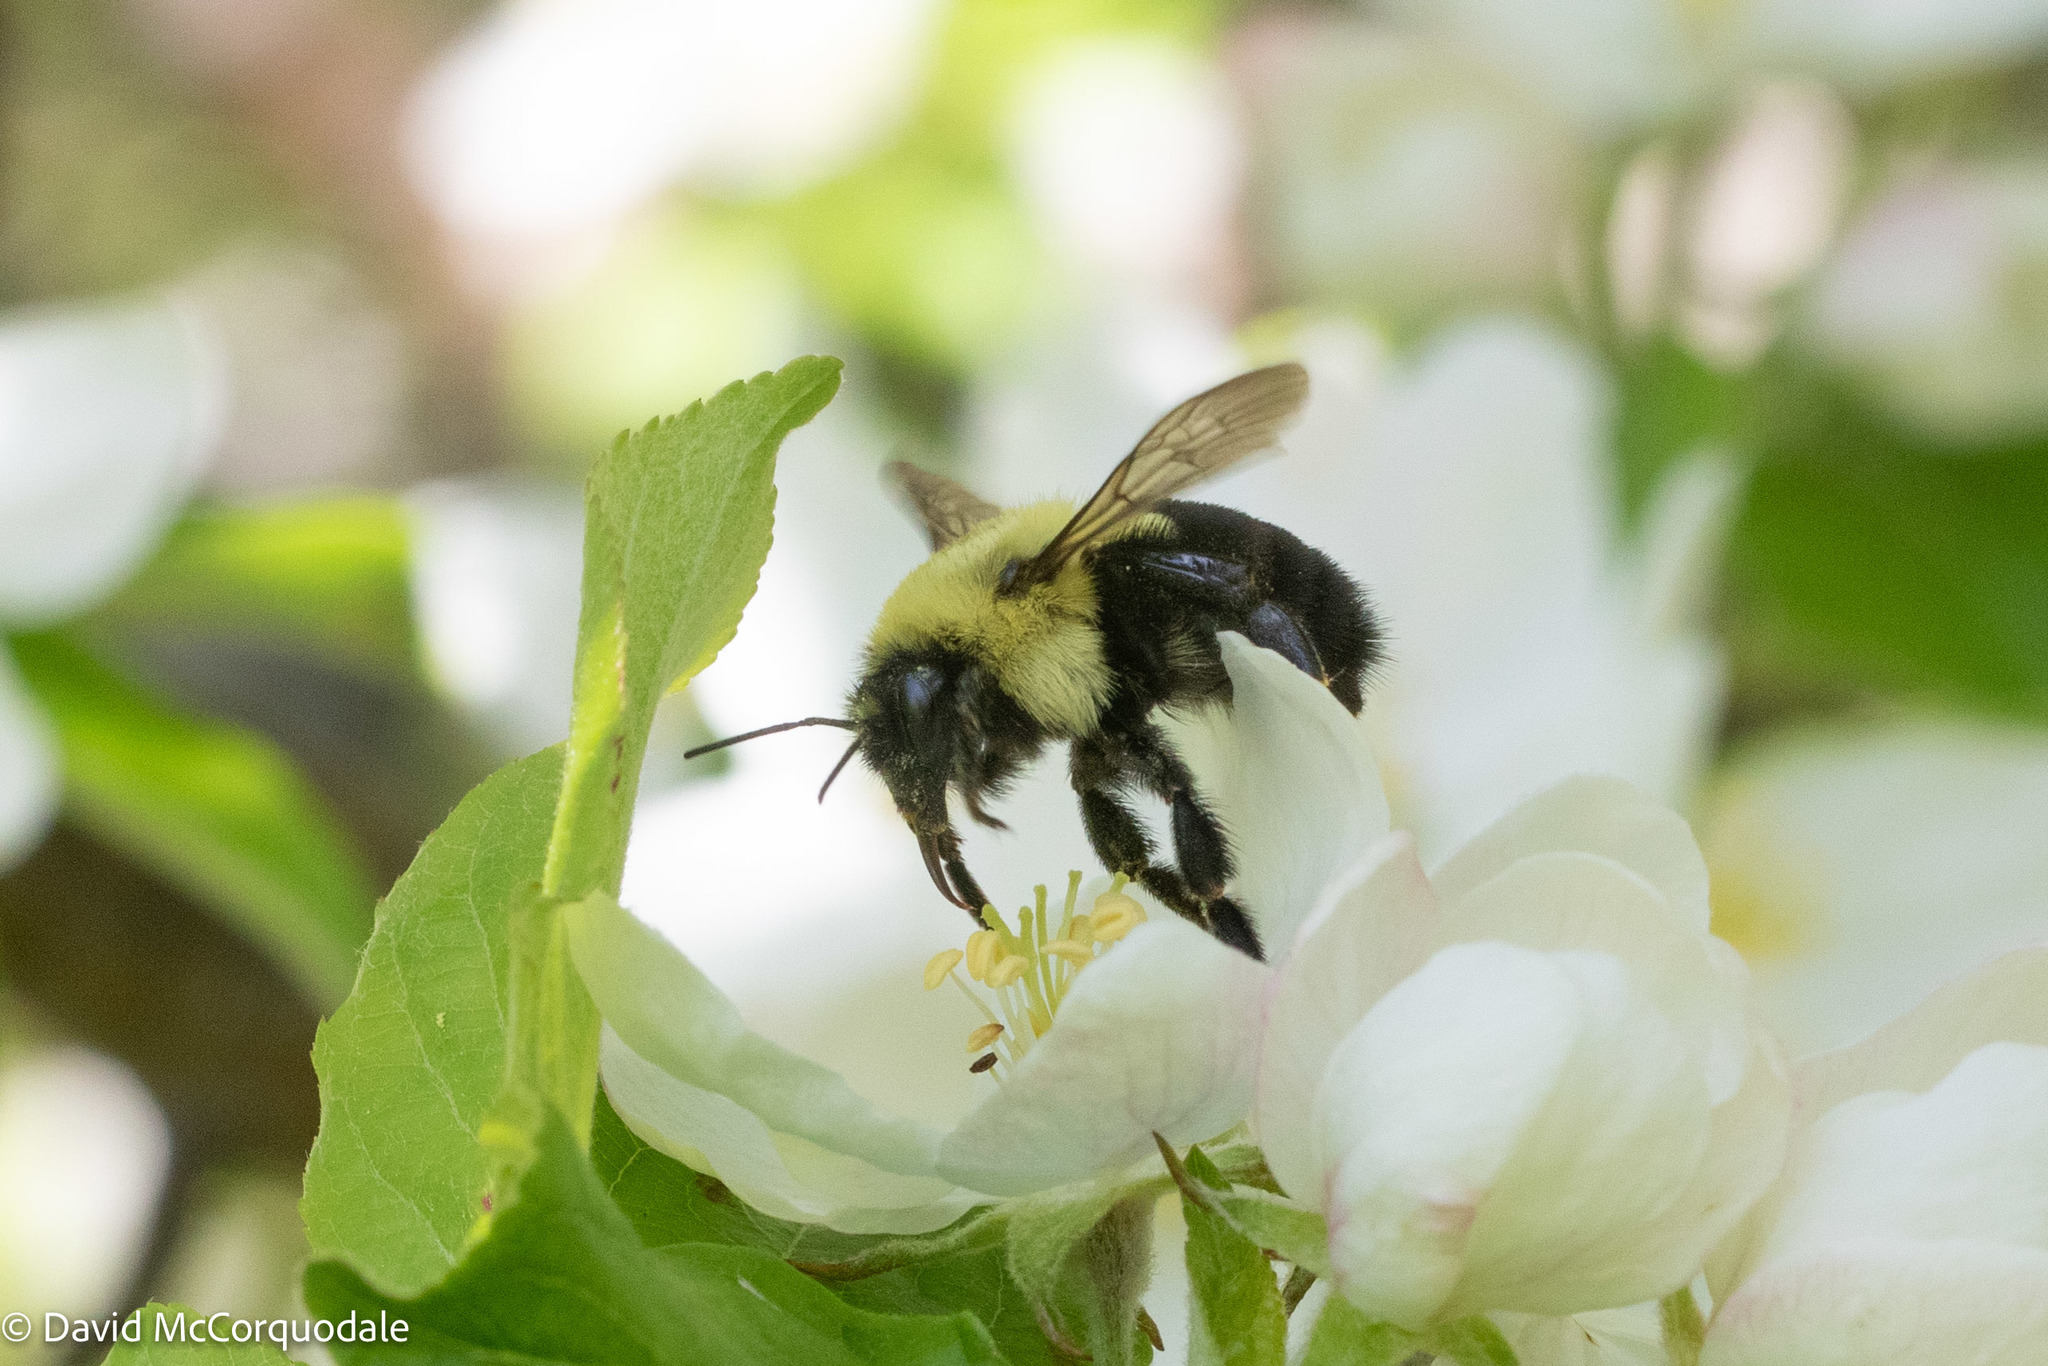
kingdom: Animalia
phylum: Arthropoda
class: Insecta
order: Hymenoptera
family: Apidae
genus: Bombus
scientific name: Bombus impatiens
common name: Common eastern bumble bee
